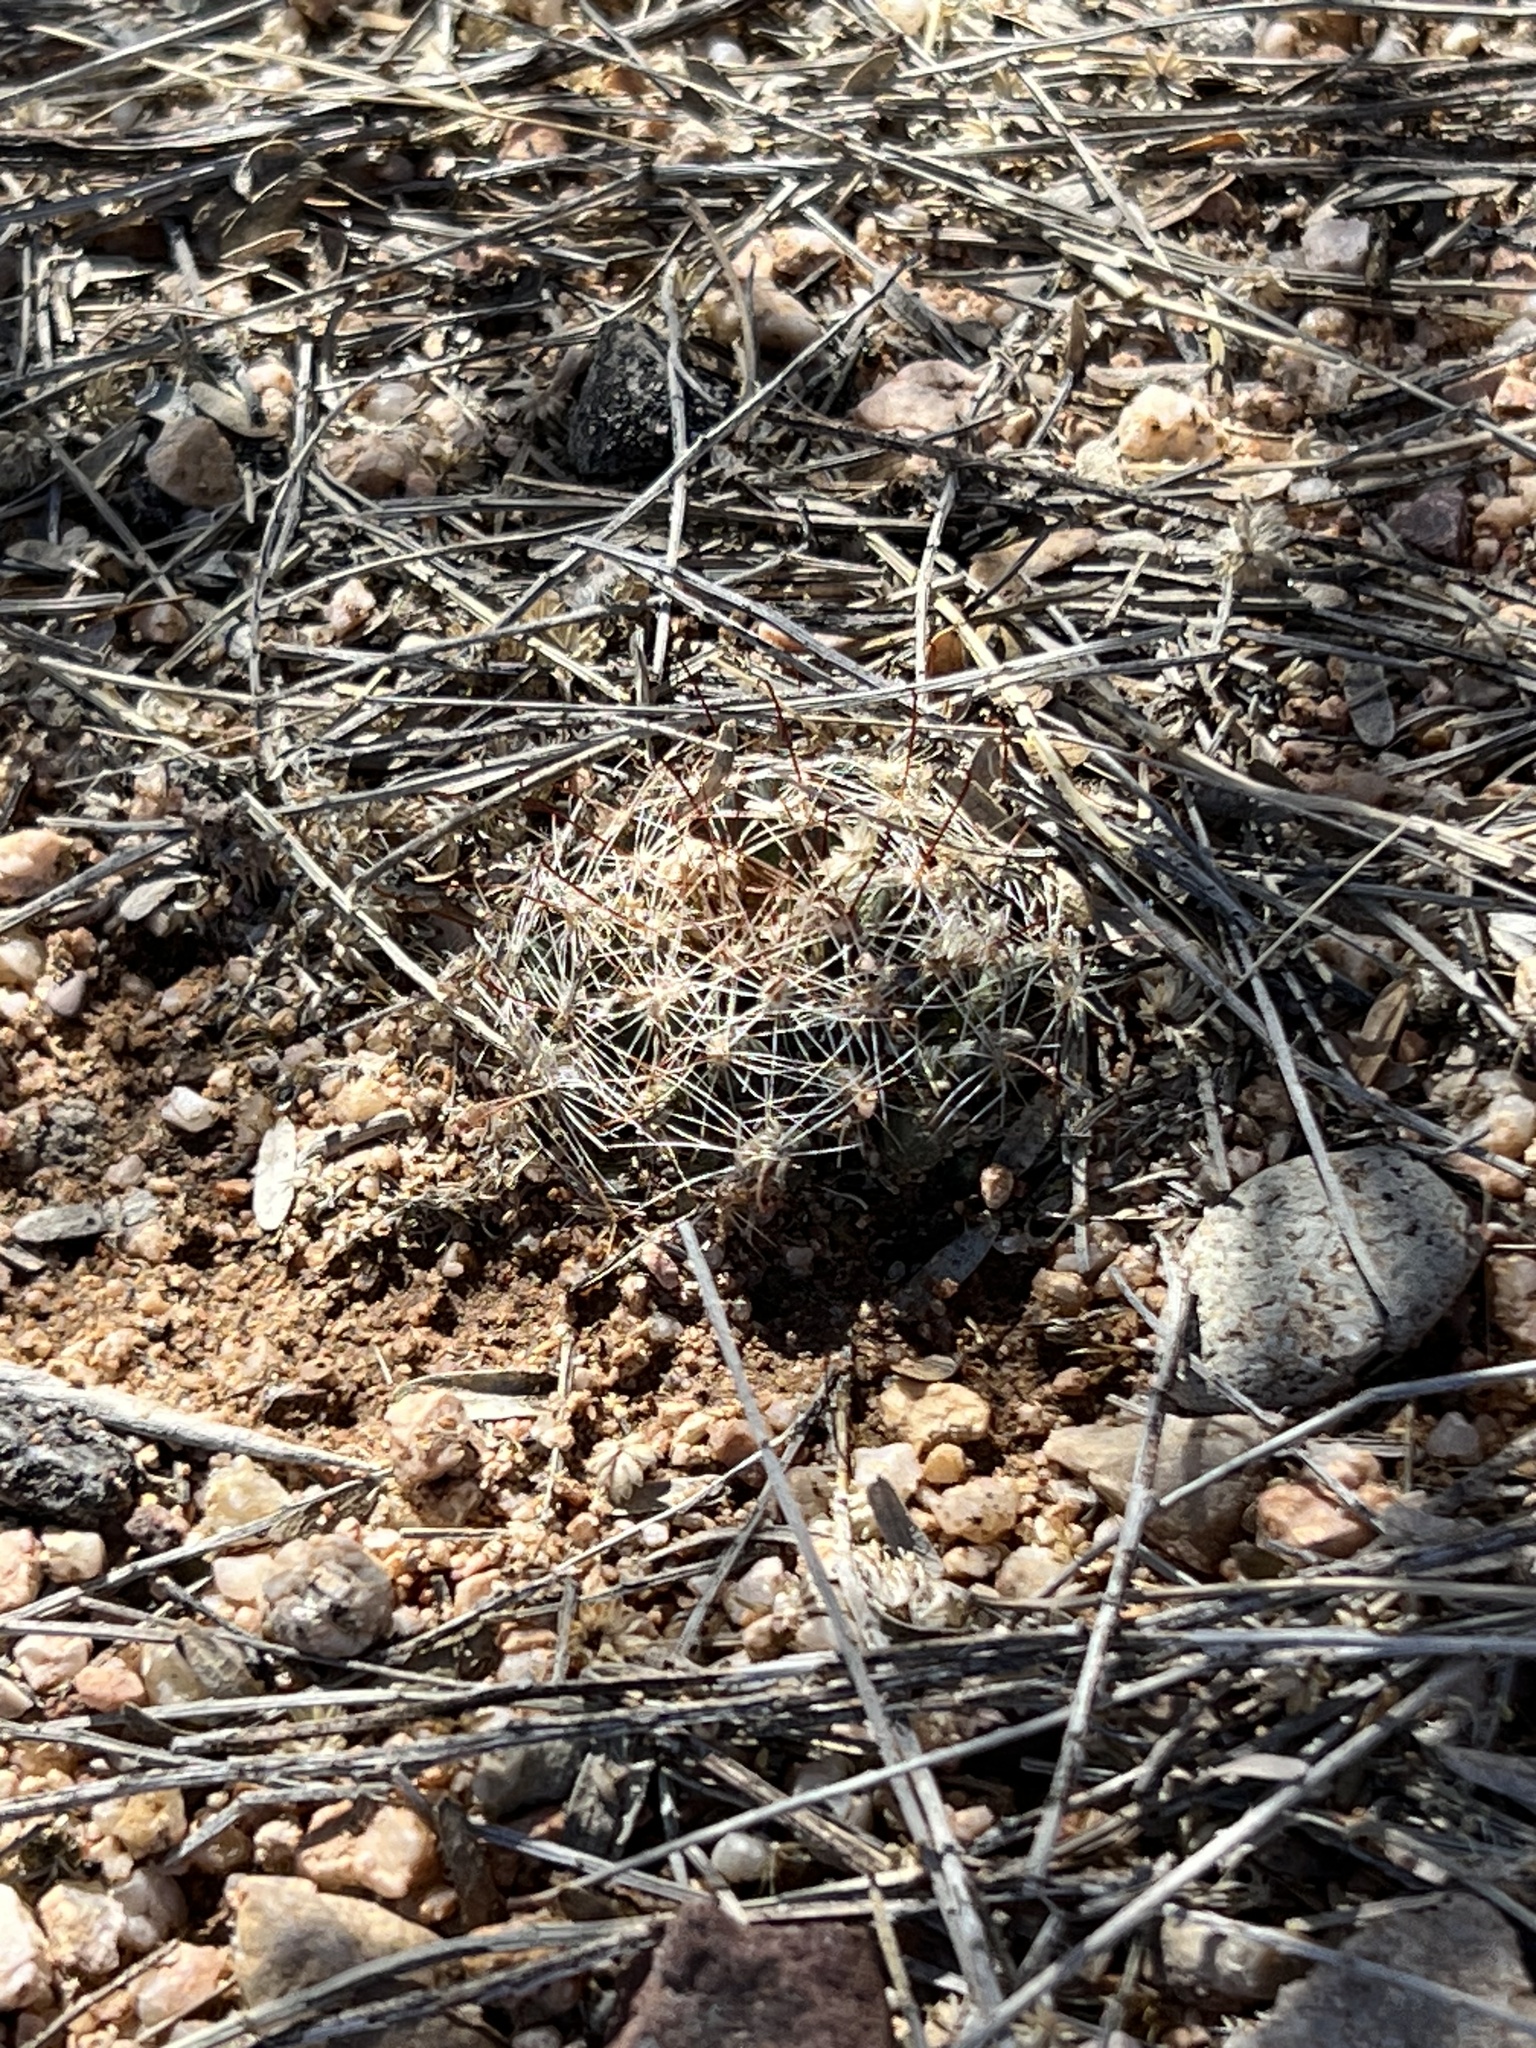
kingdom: Plantae
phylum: Tracheophyta
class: Magnoliopsida
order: Caryophyllales
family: Cactaceae
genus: Cochemiea
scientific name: Cochemiea wrightii
